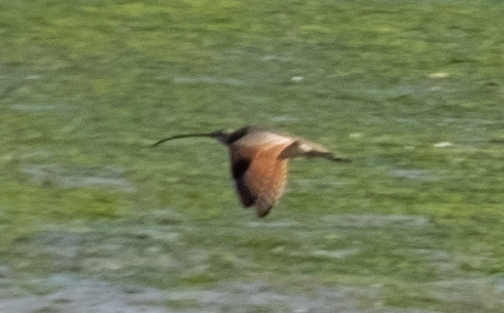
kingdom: Animalia
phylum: Chordata
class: Aves
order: Charadriiformes
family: Scolopacidae
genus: Numenius
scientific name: Numenius americanus
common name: Long-billed curlew
